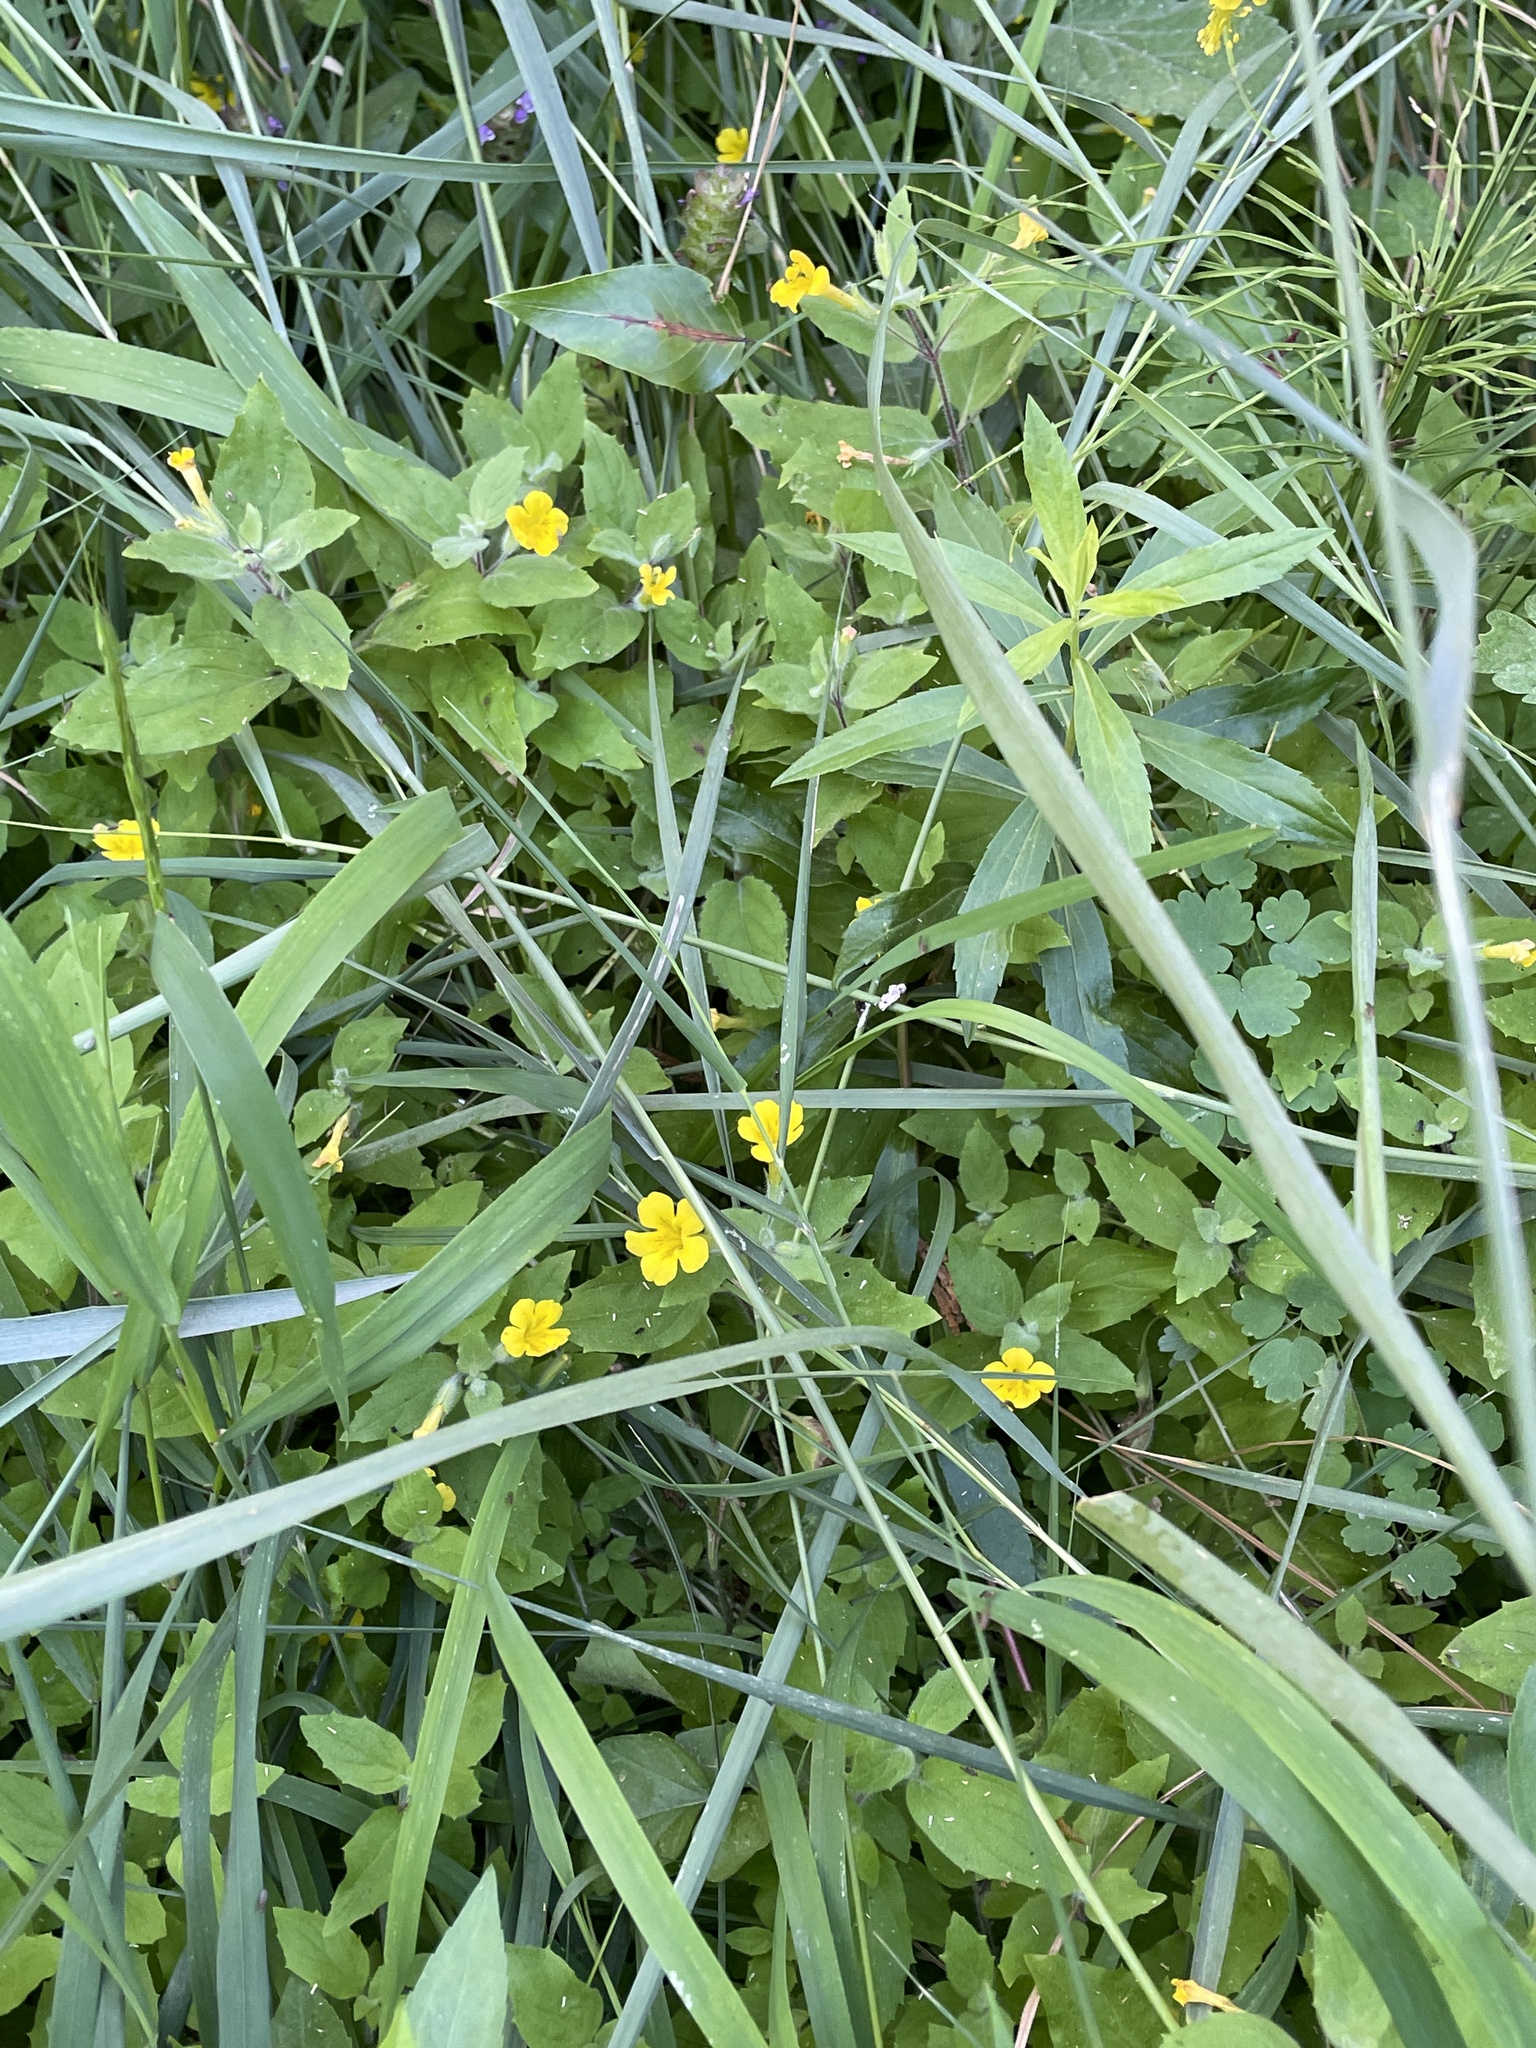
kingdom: Plantae
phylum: Tracheophyta
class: Magnoliopsida
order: Lamiales
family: Phrymaceae
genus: Erythranthe
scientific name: Erythranthe moschata
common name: Muskflower
